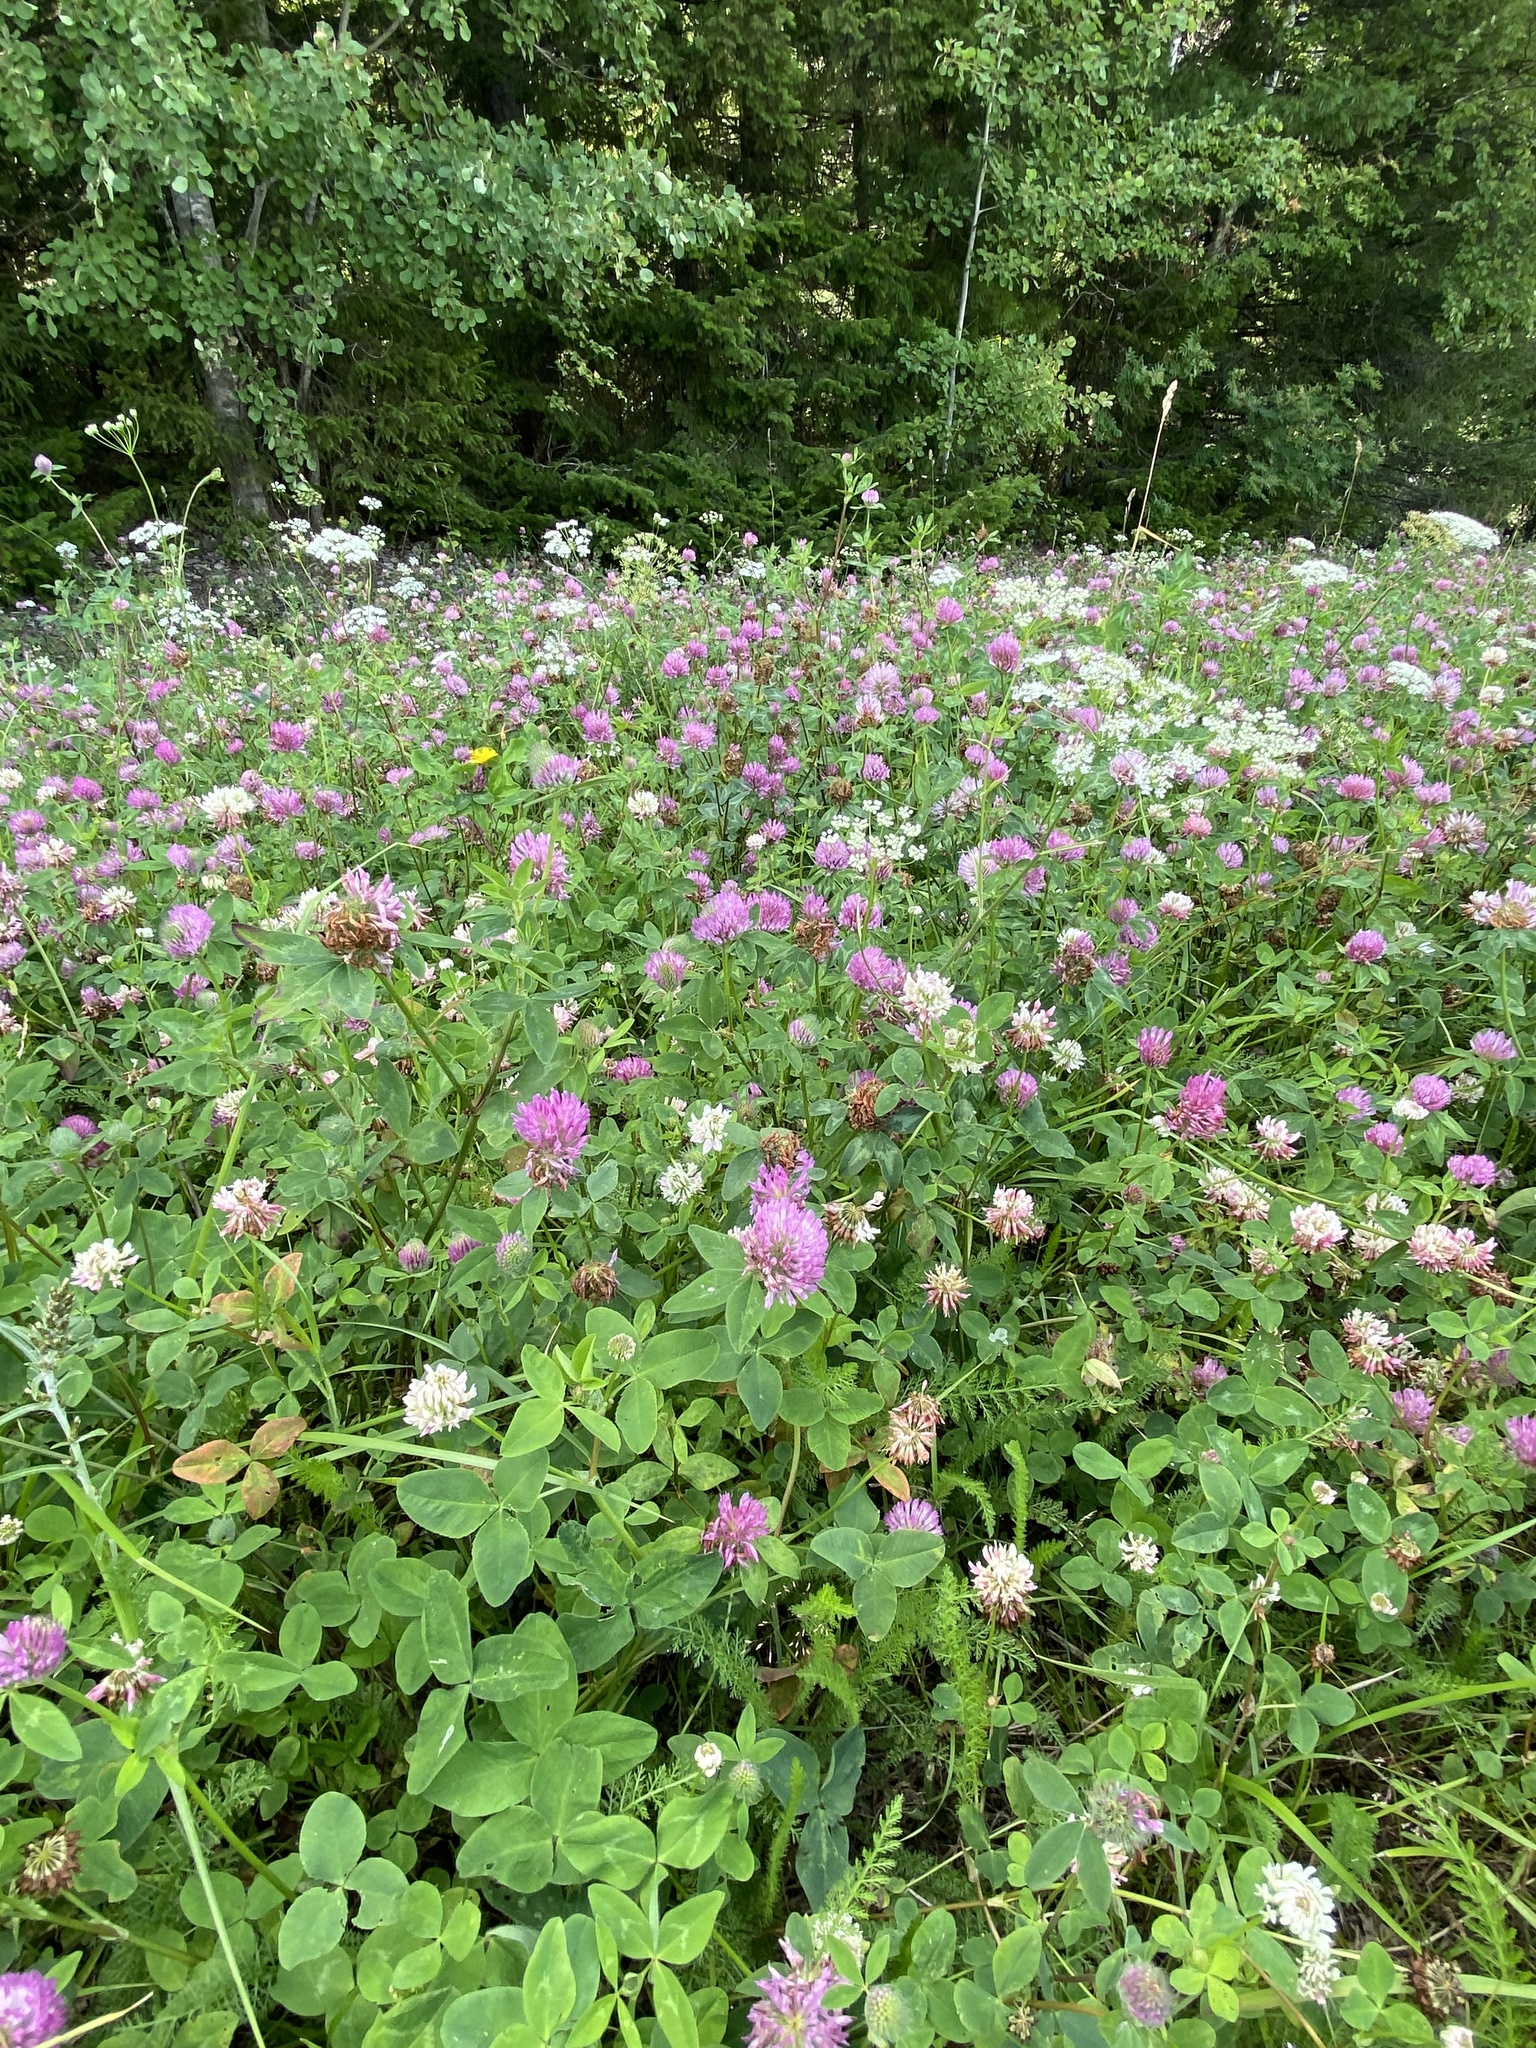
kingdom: Plantae
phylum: Tracheophyta
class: Magnoliopsida
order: Fabales
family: Fabaceae
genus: Trifolium
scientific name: Trifolium pratense
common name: Red clover
